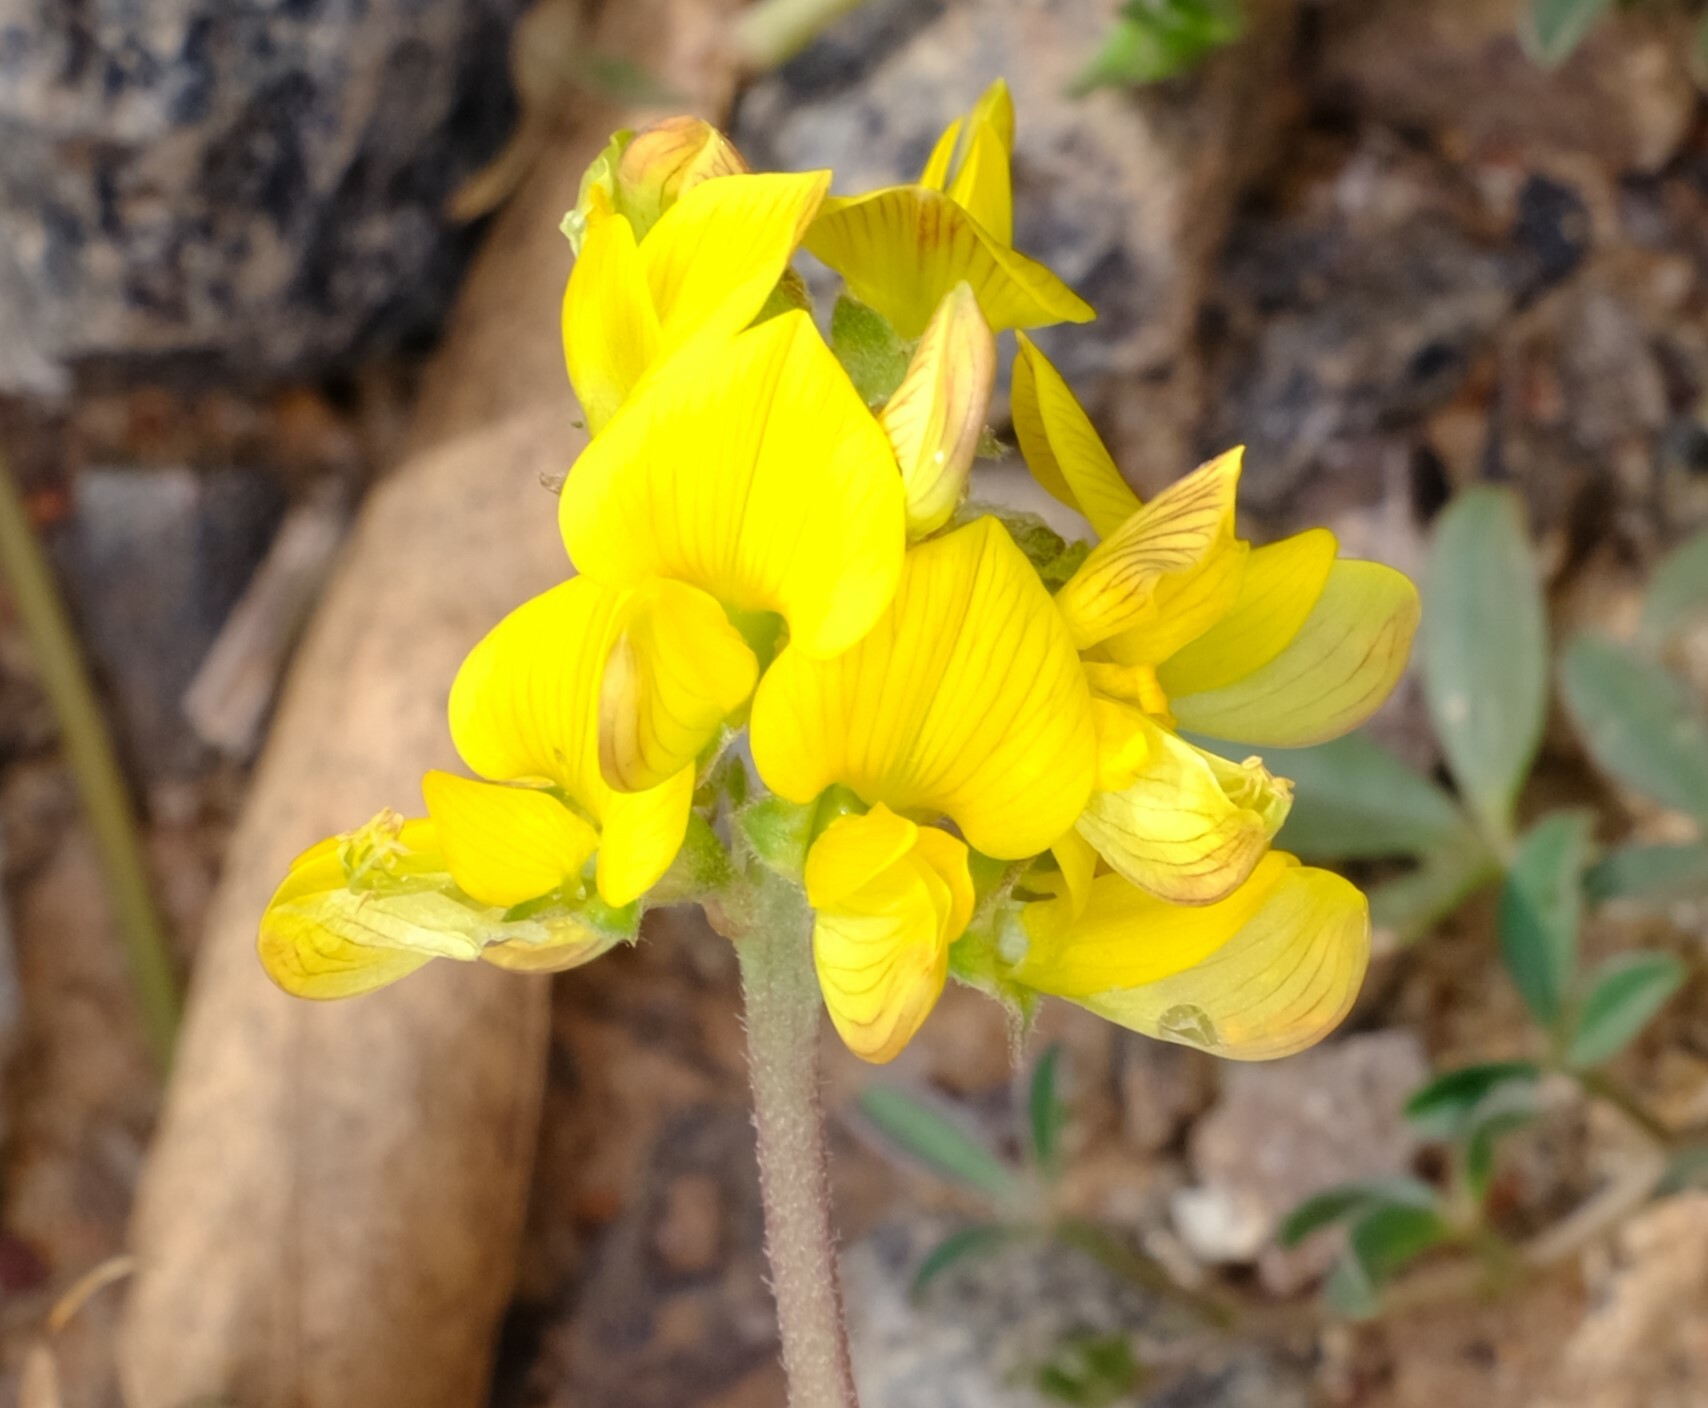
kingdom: Plantae
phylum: Tracheophyta
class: Magnoliopsida
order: Fabales
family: Fabaceae
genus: Listia
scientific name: Listia bainesii
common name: Lotononis
